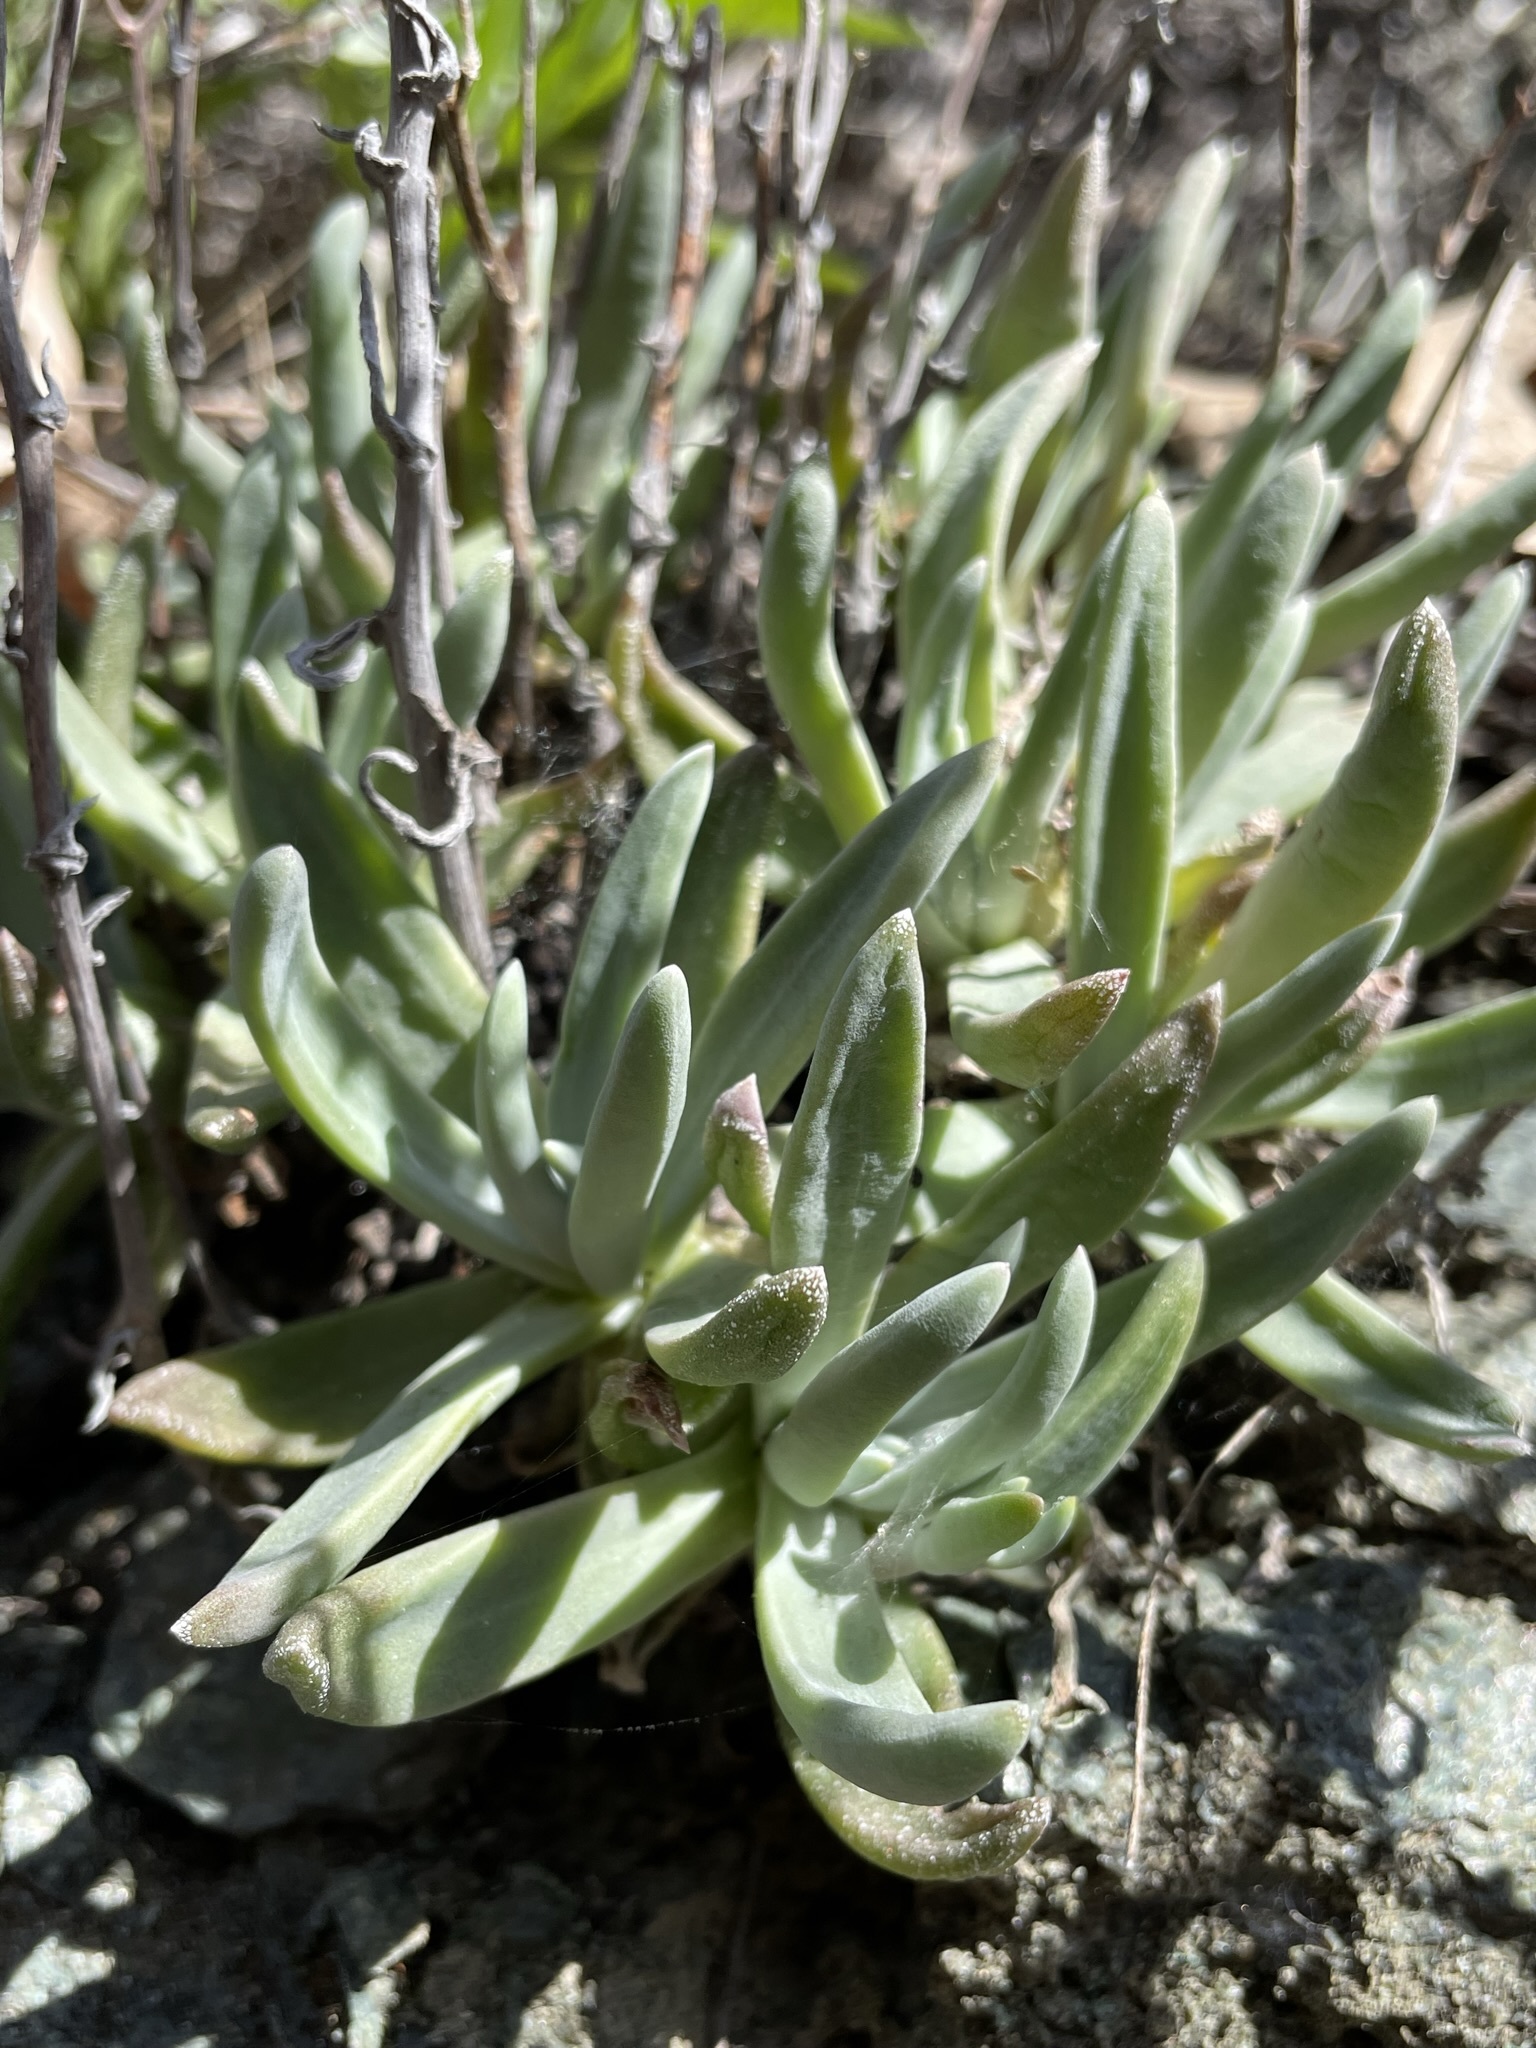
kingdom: Plantae
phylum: Tracheophyta
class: Magnoliopsida
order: Saxifragales
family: Crassulaceae
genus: Dudleya
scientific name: Dudleya abramsii
